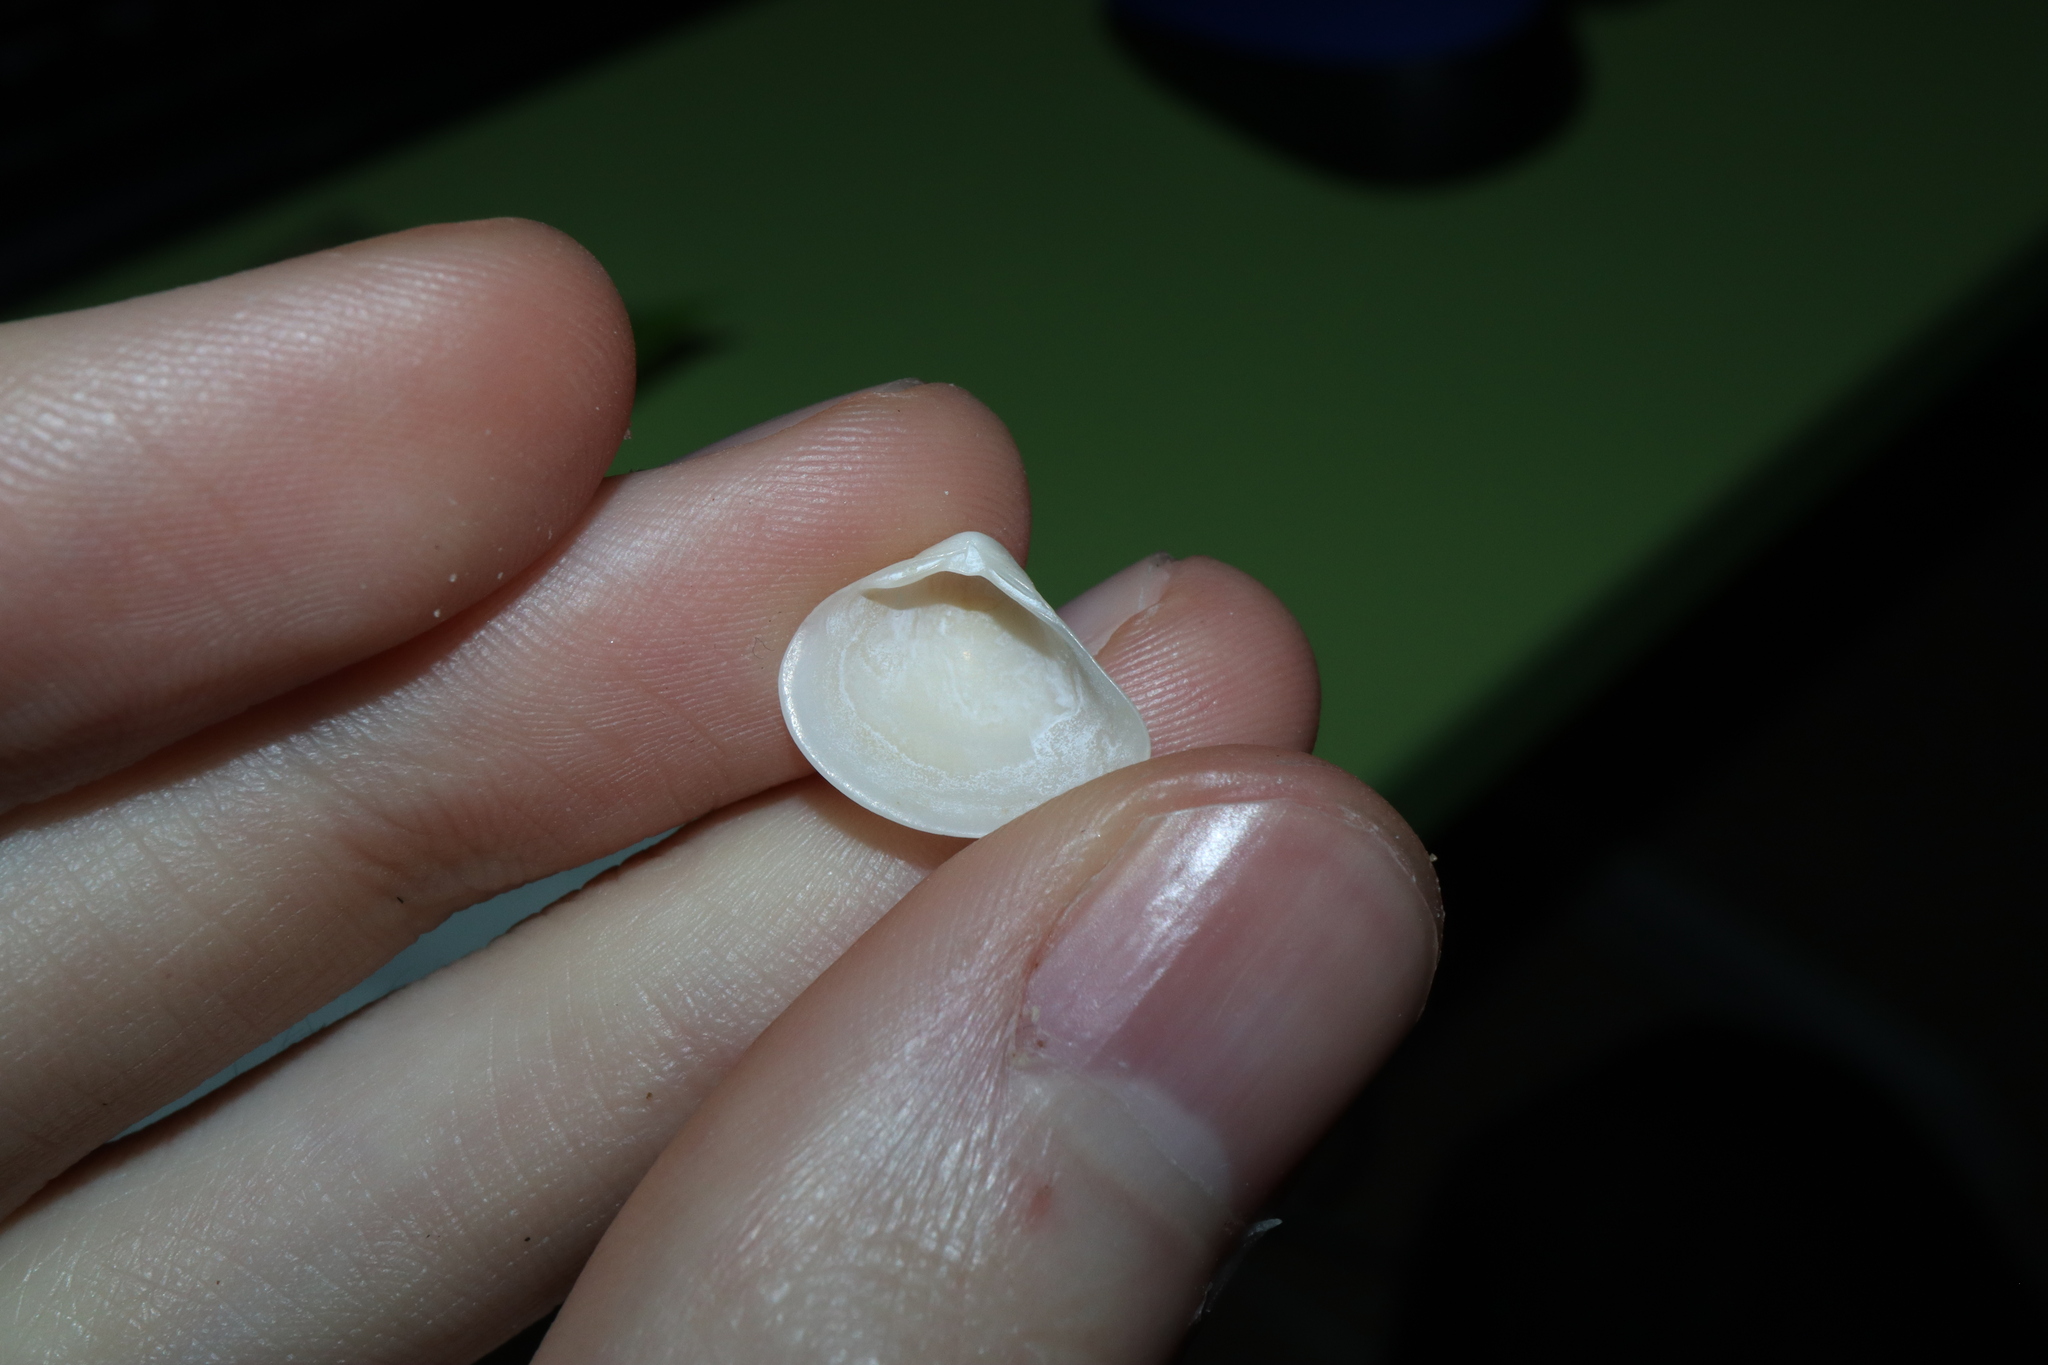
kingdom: Animalia
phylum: Mollusca
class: Bivalvia
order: Venerida
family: Mactridae
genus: Spisula
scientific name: Spisula trigonella
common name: Trigonal mactra
